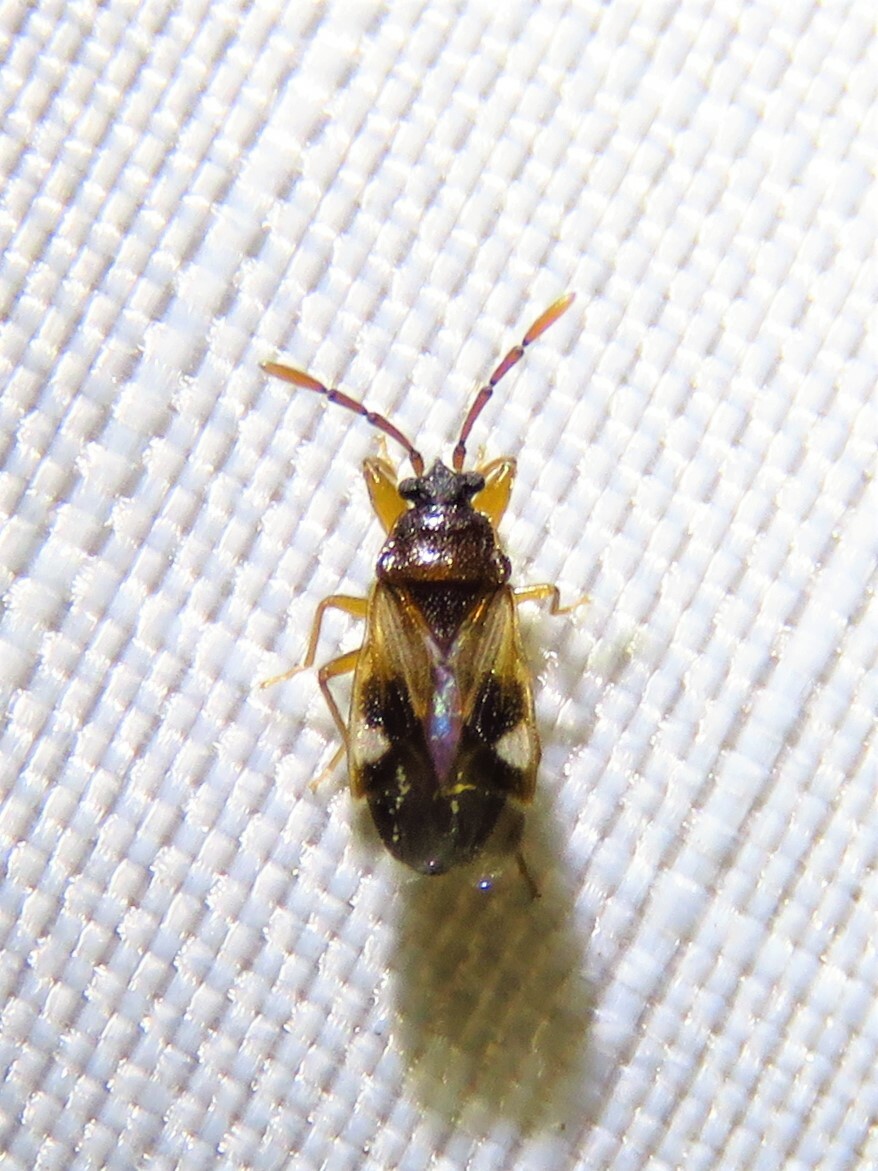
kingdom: Animalia
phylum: Arthropoda
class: Insecta
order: Hemiptera
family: Rhyparochromidae
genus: Tempyra
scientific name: Tempyra biguttula
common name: Seed bug
